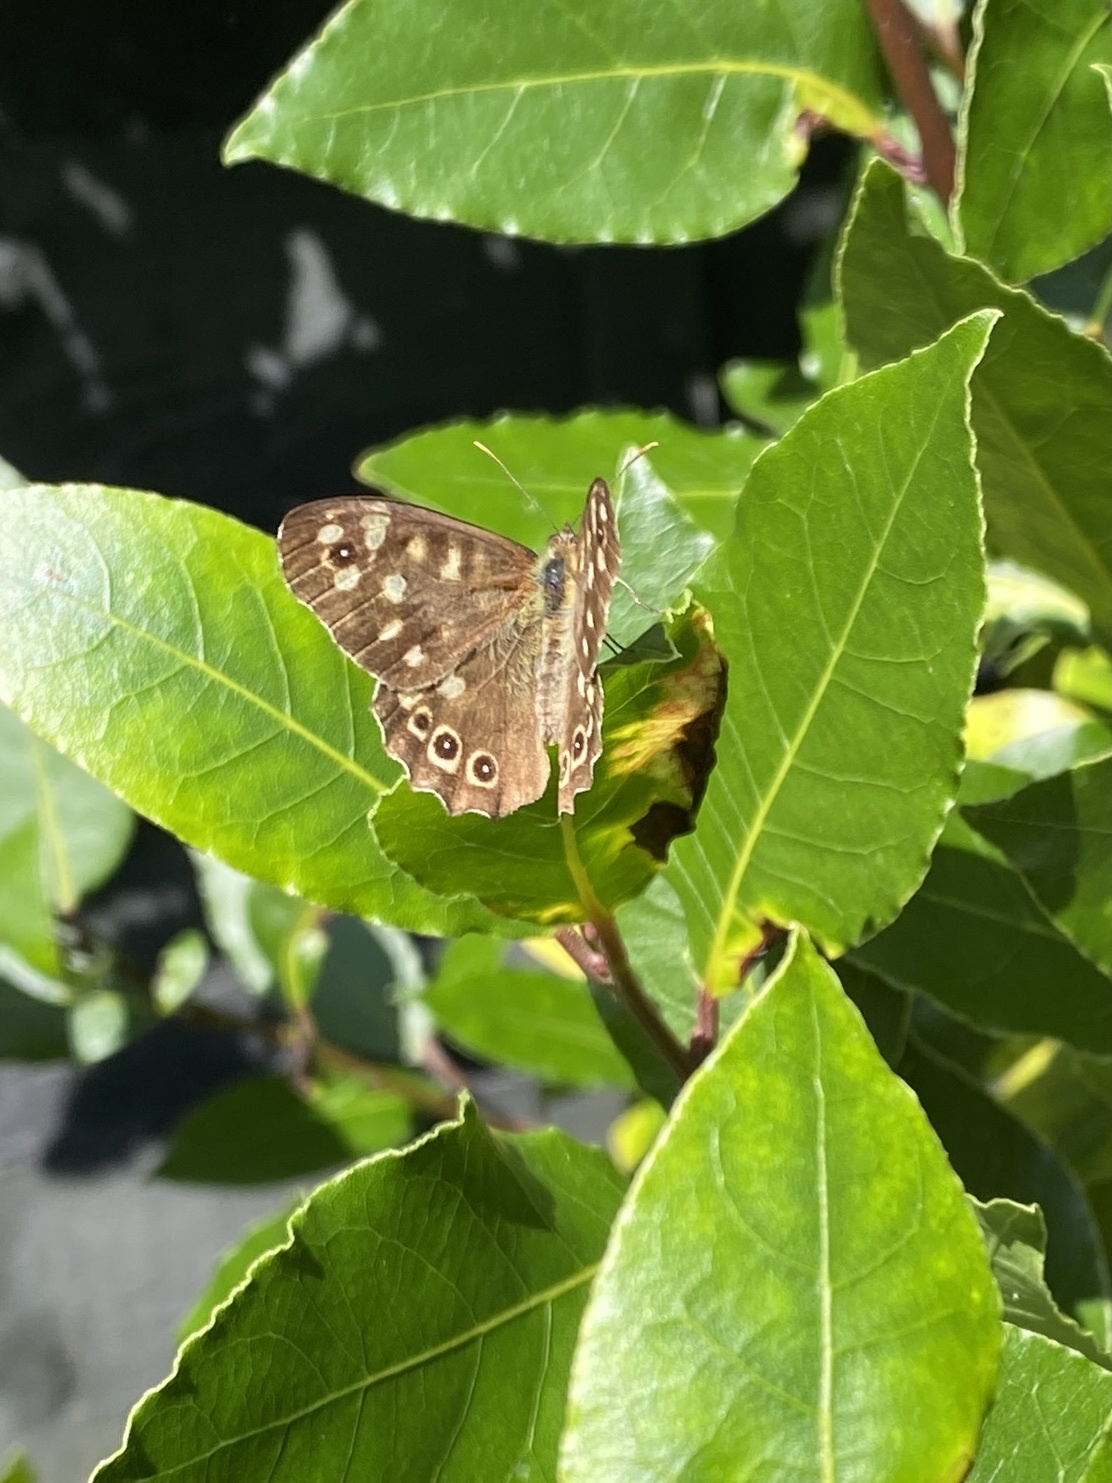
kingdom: Animalia
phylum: Arthropoda
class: Insecta
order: Lepidoptera
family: Nymphalidae
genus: Pararge
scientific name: Pararge aegeria
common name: Speckled wood
